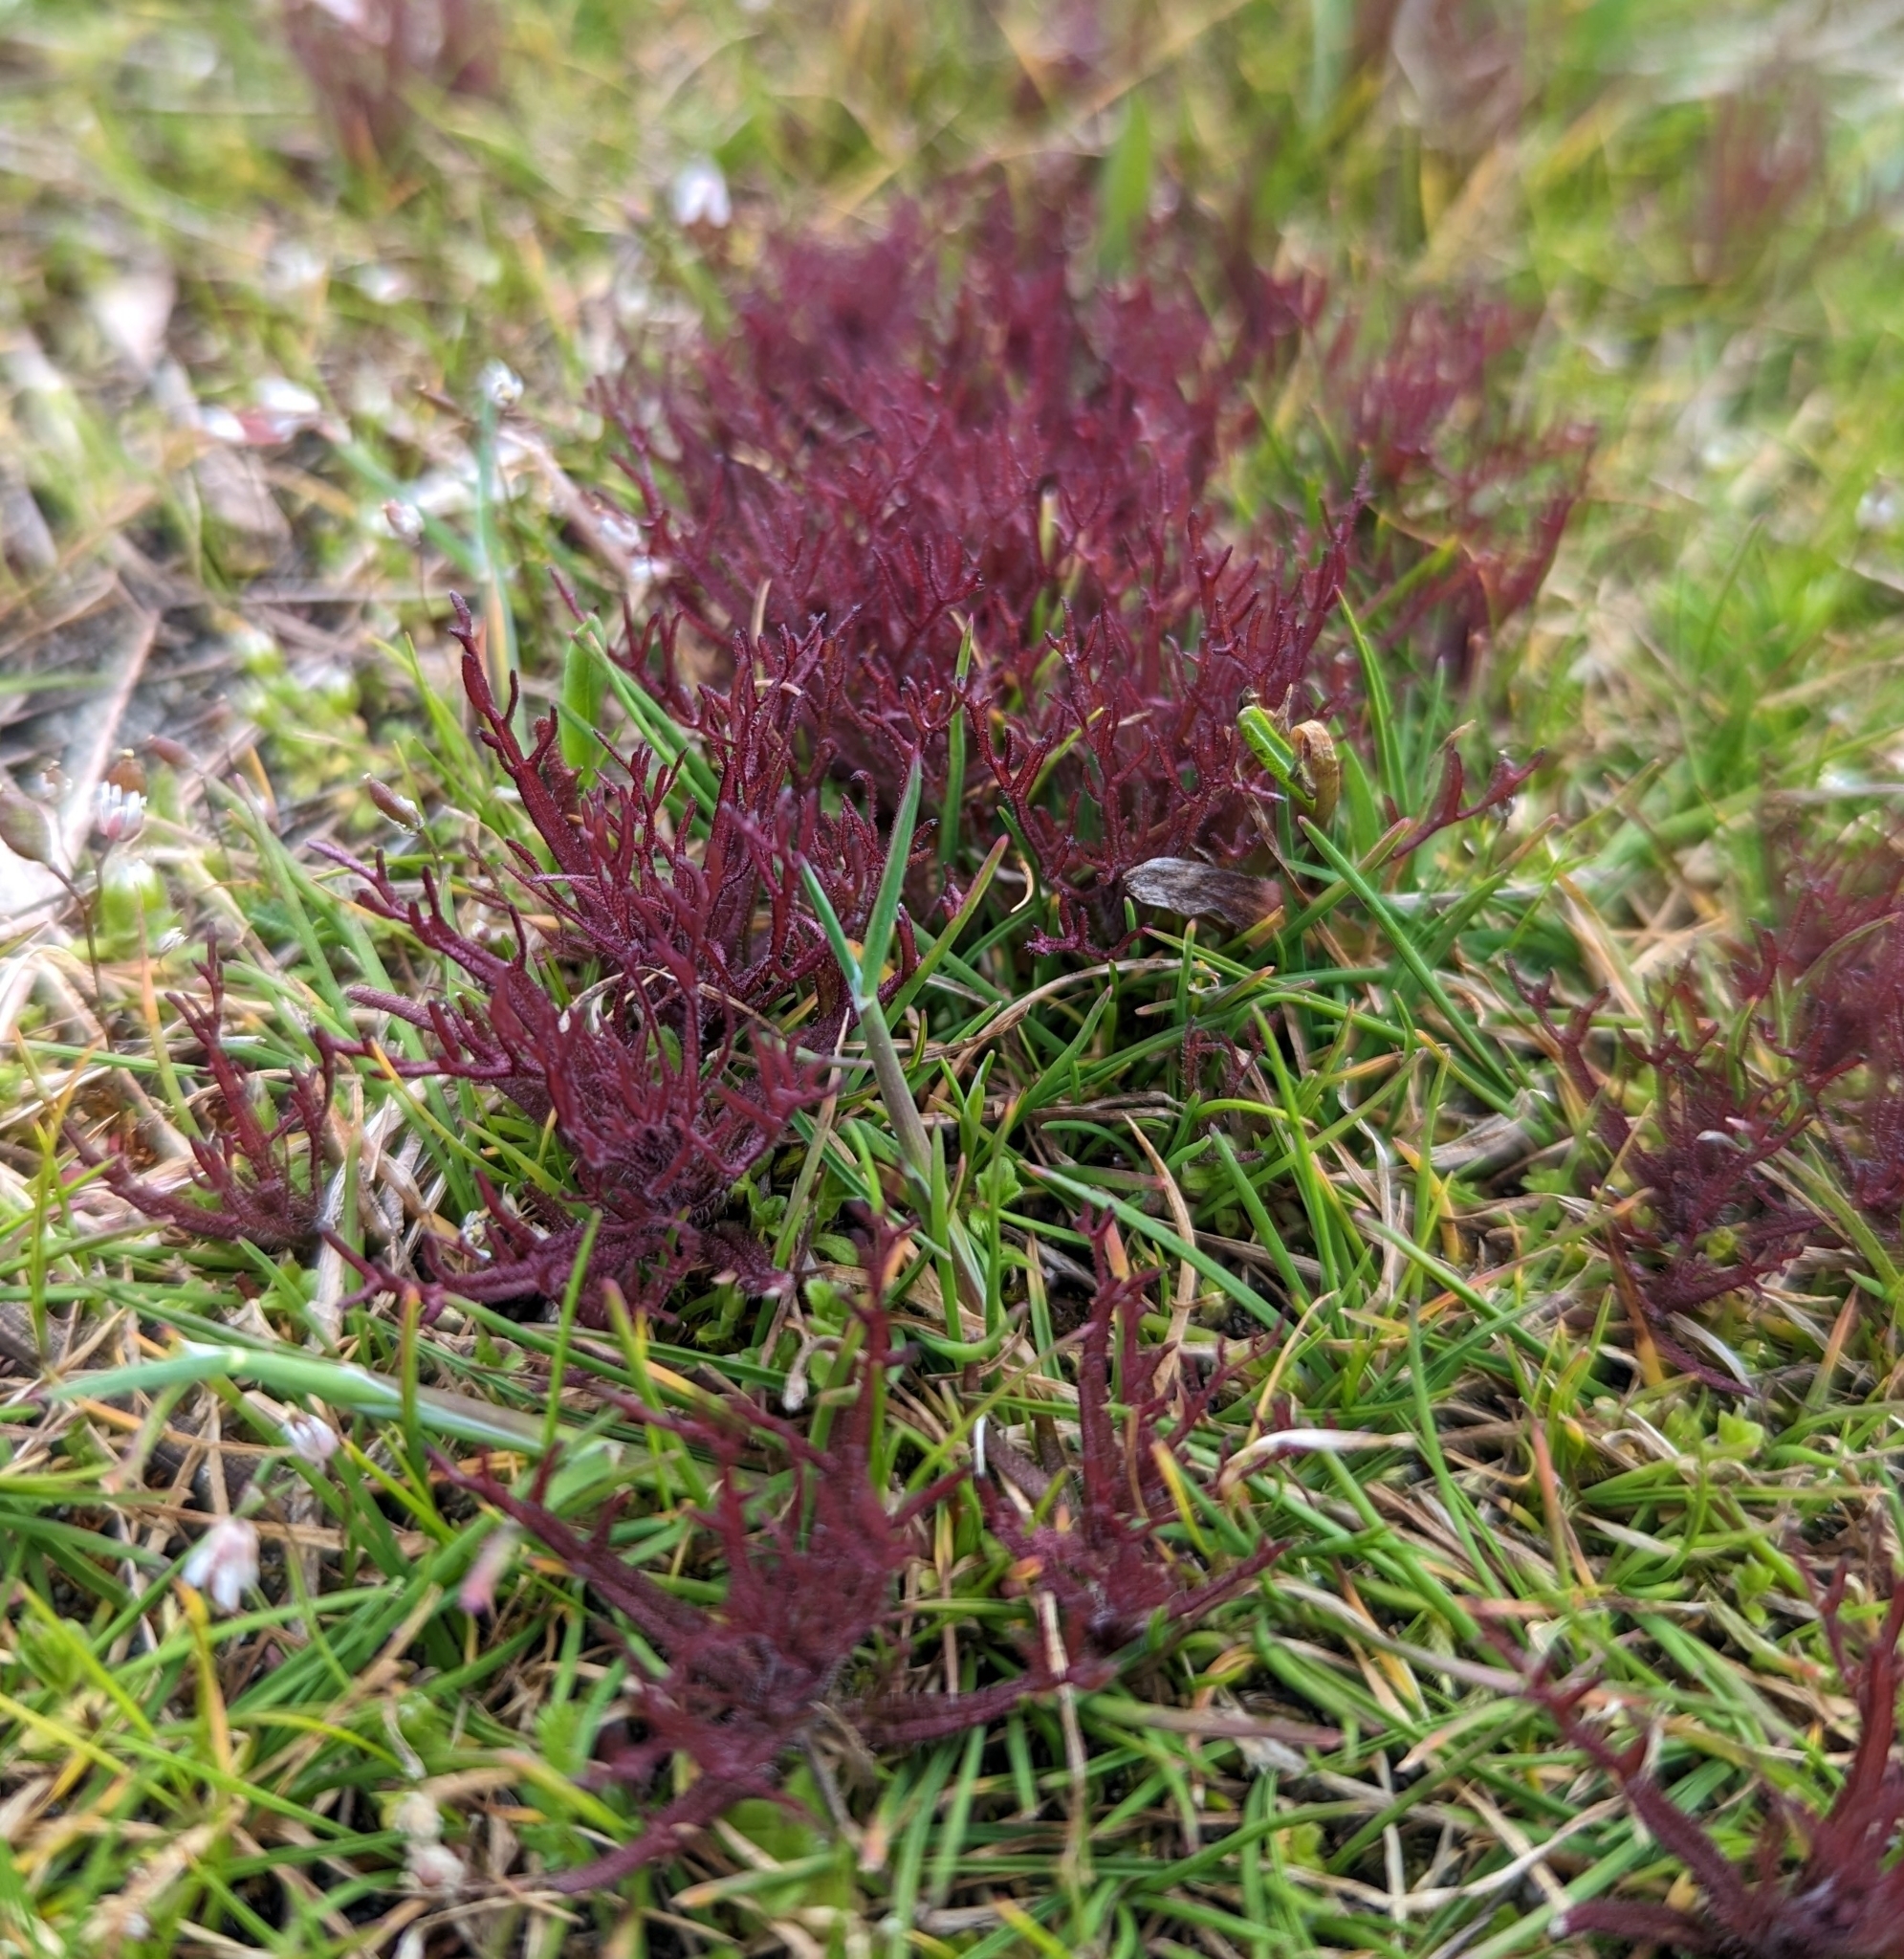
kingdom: Plantae
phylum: Tracheophyta
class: Magnoliopsida
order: Lamiales
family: Orobanchaceae
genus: Triphysaria
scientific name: Triphysaria pusilla
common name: Dwarf false owl-clover
